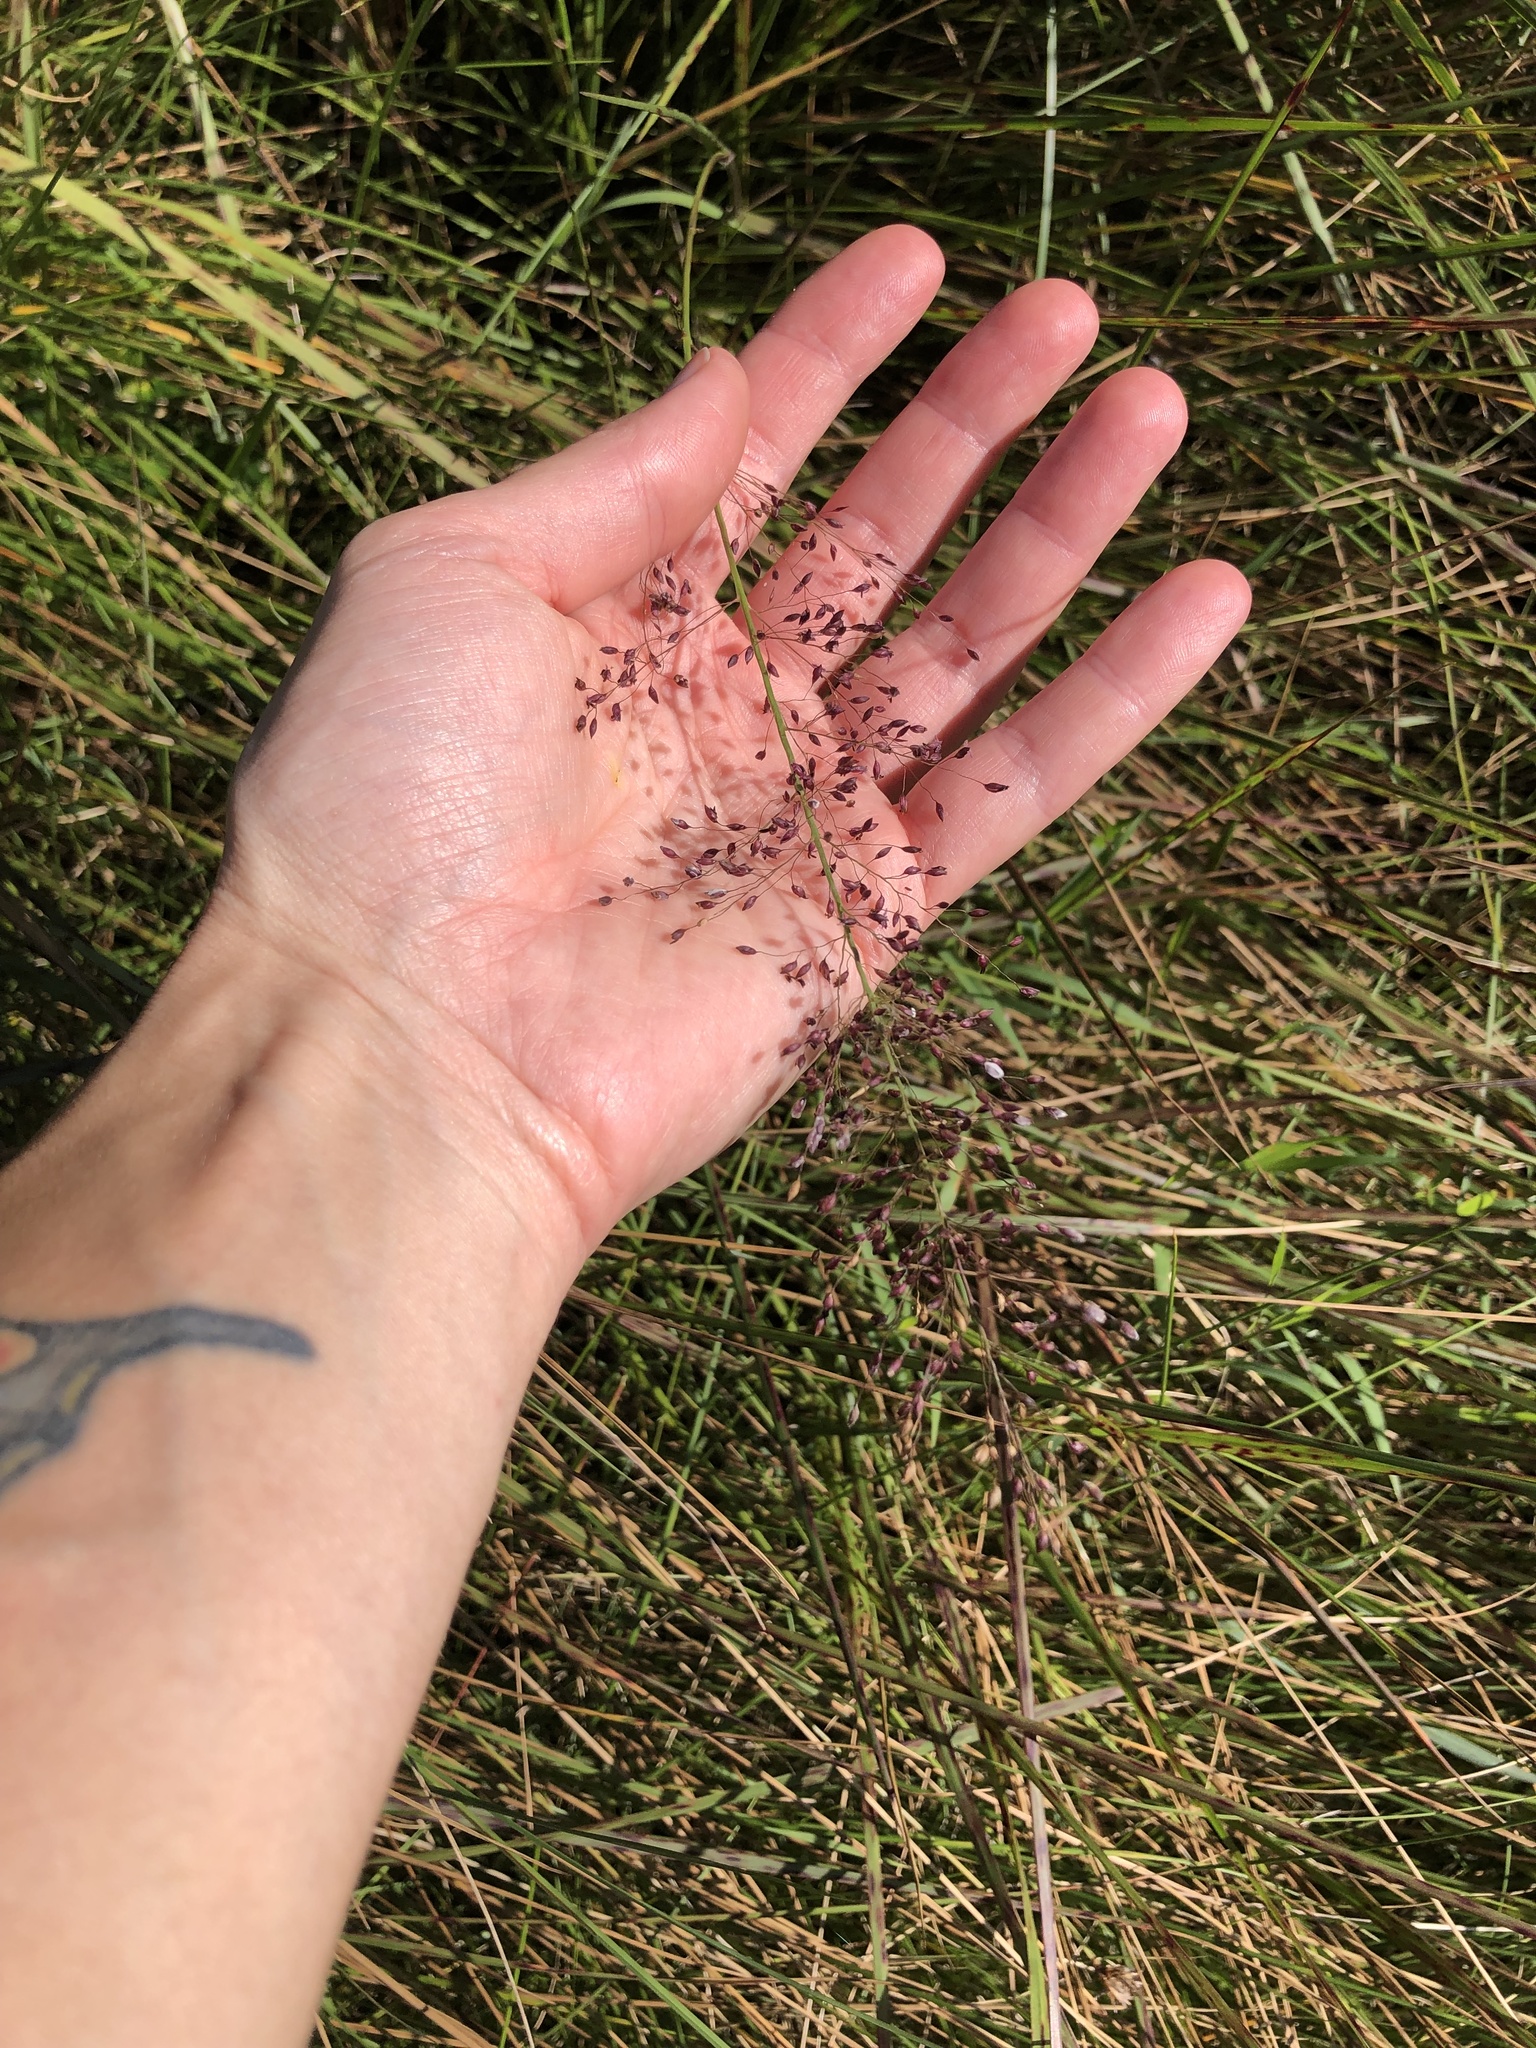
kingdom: Plantae
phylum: Tracheophyta
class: Liliopsida
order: Poales
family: Poaceae
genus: Melinis
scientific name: Melinis repens
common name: Rose natal grass
